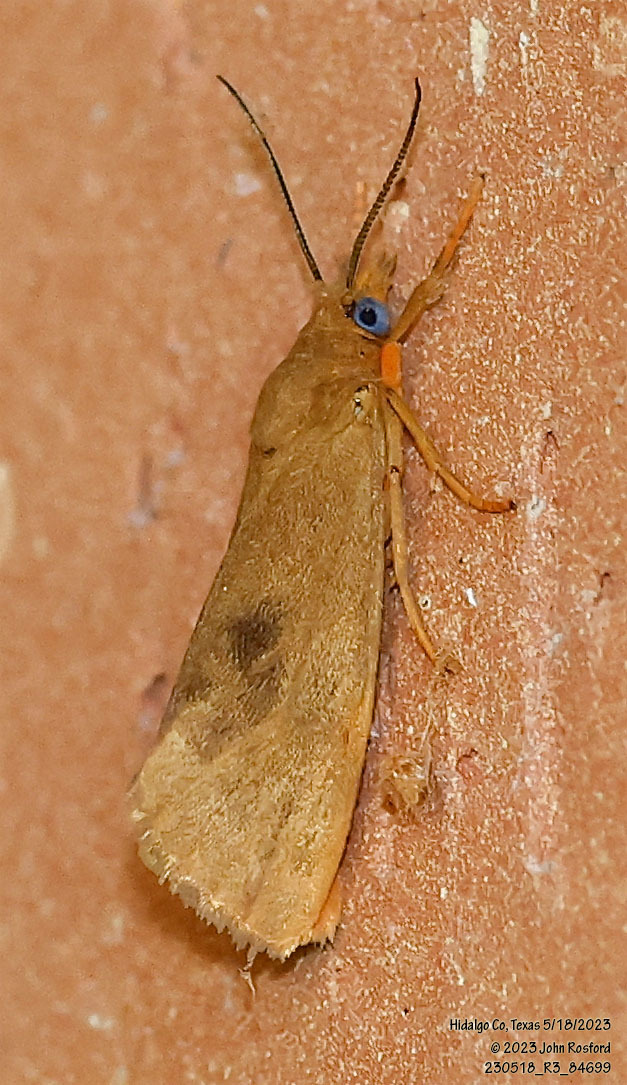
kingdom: Animalia
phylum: Arthropoda
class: Insecta
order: Lepidoptera
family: Erebidae
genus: Virbia
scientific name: Virbia aurantiaca
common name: Orange virbia moth
